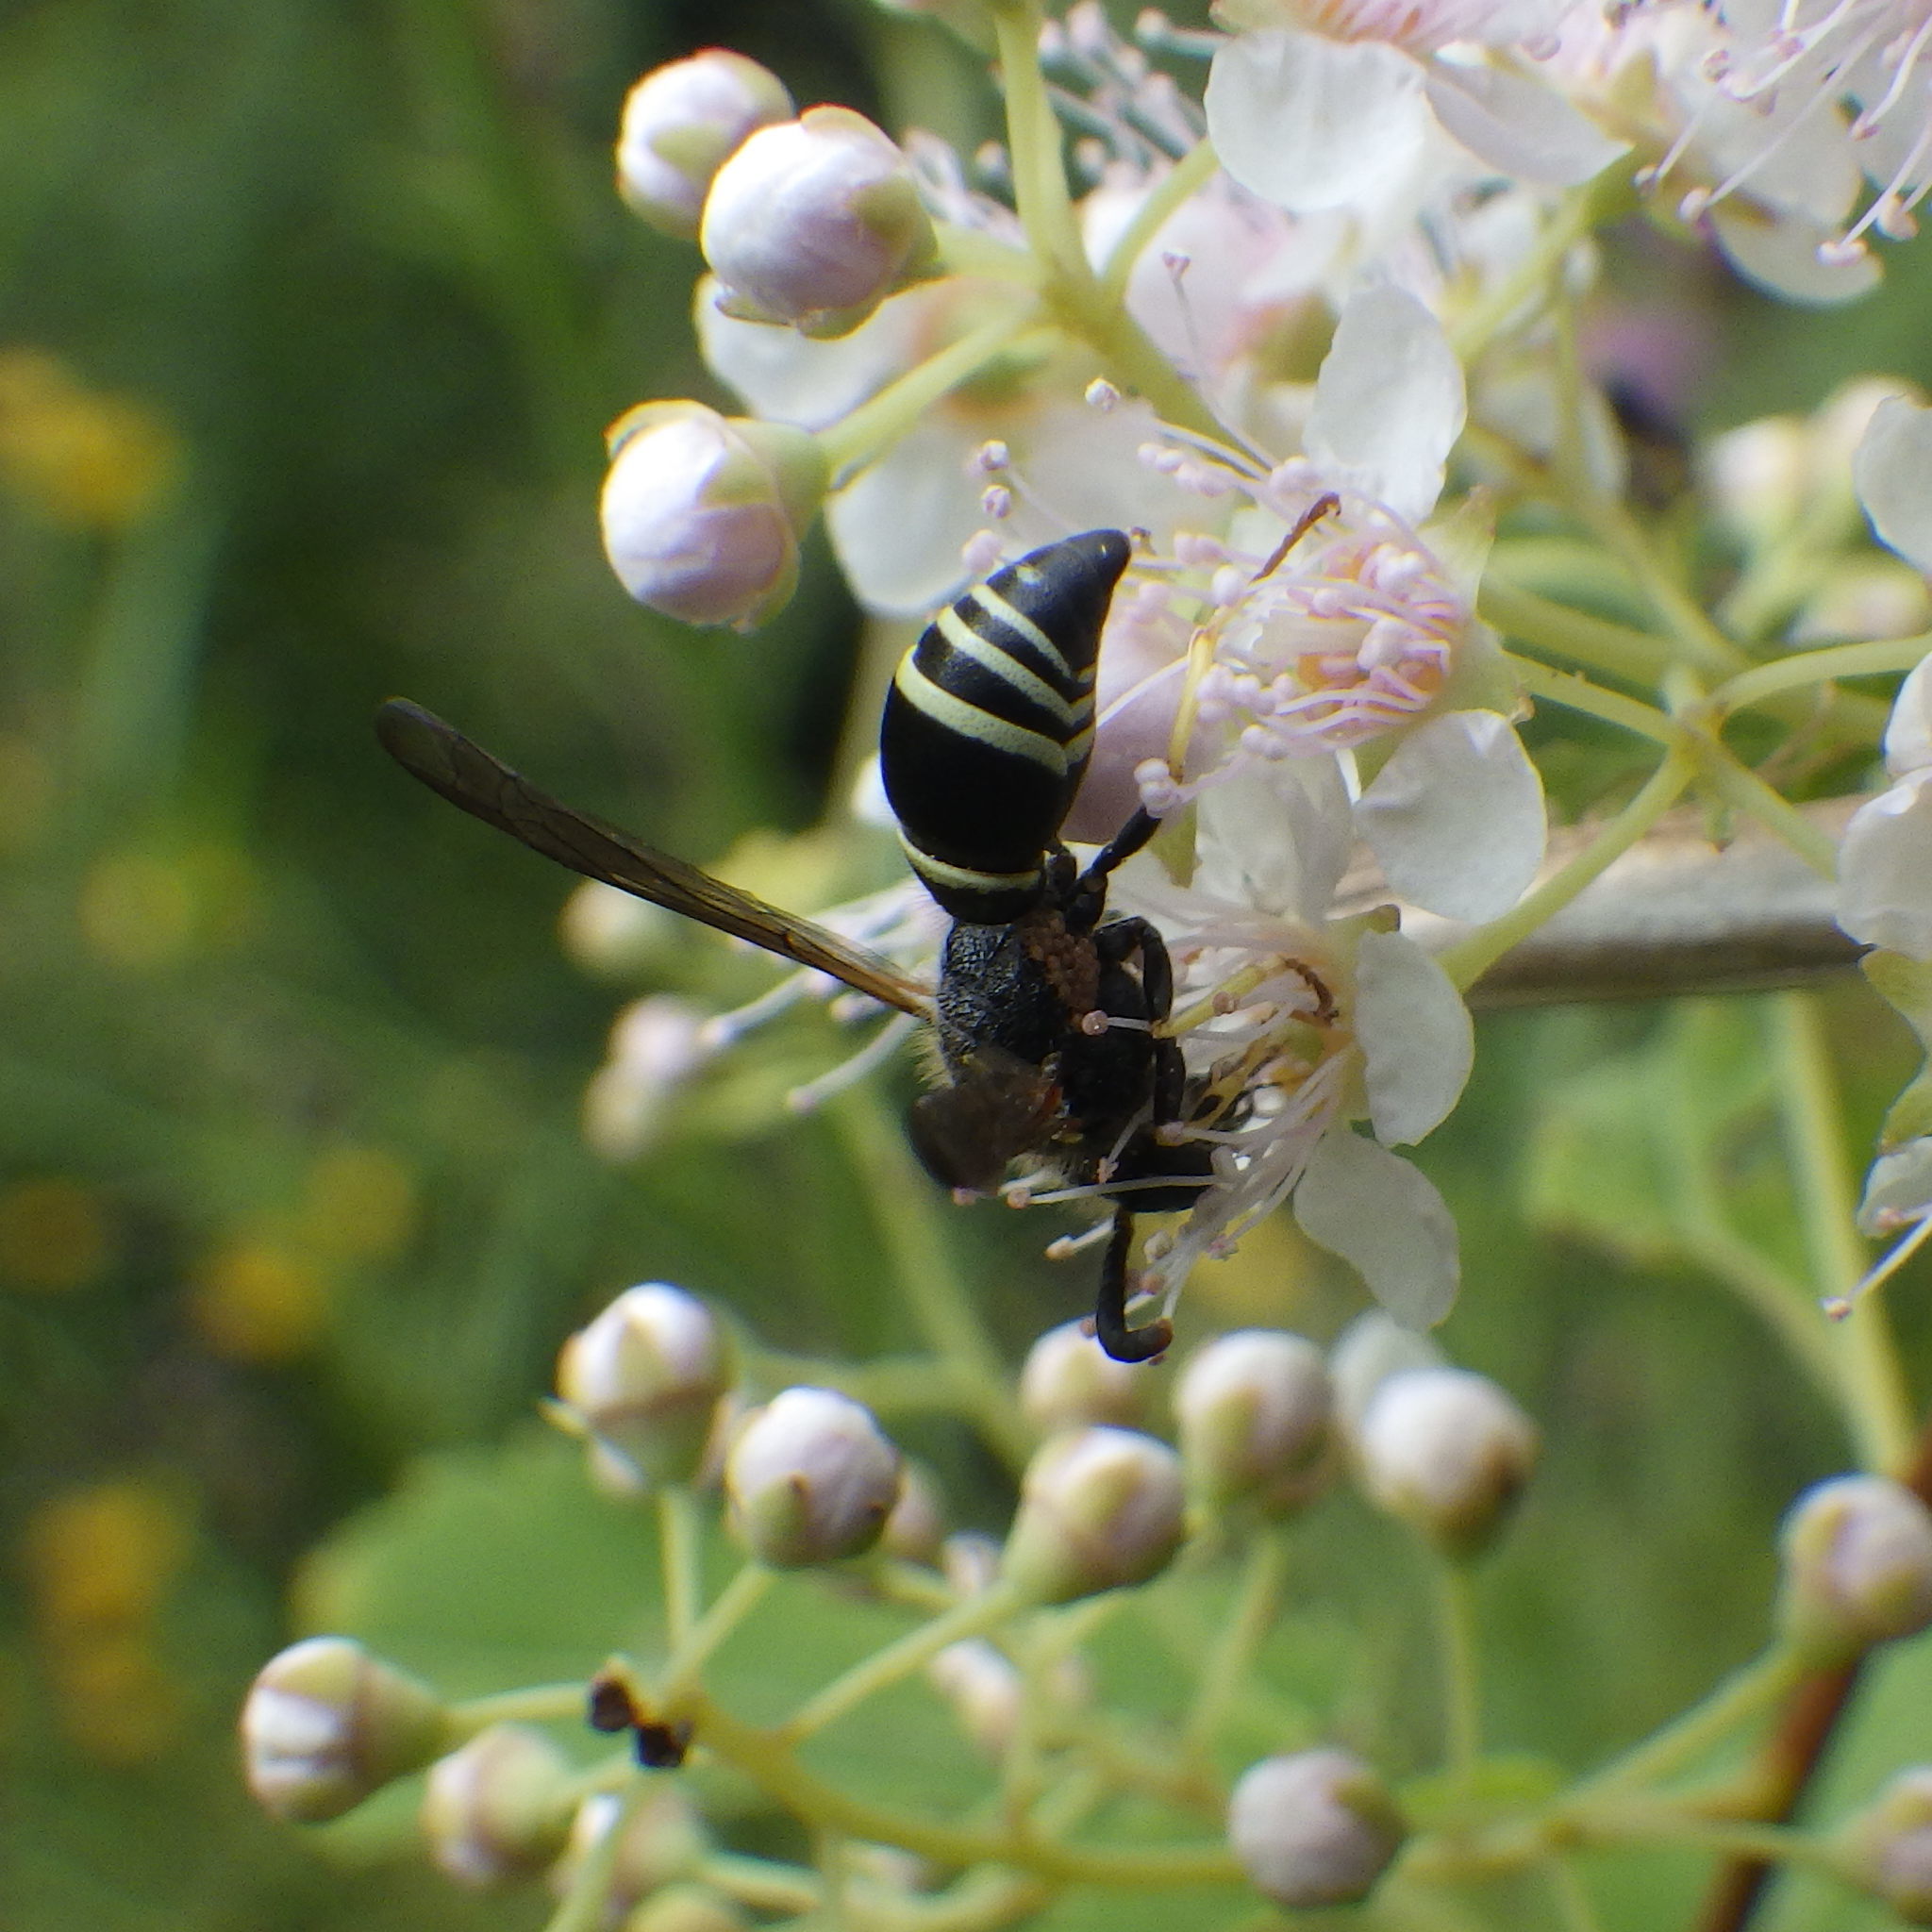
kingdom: Animalia
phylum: Arthropoda
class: Insecta
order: Hymenoptera
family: Vespidae
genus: Ancistrocerus
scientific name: Ancistrocerus
